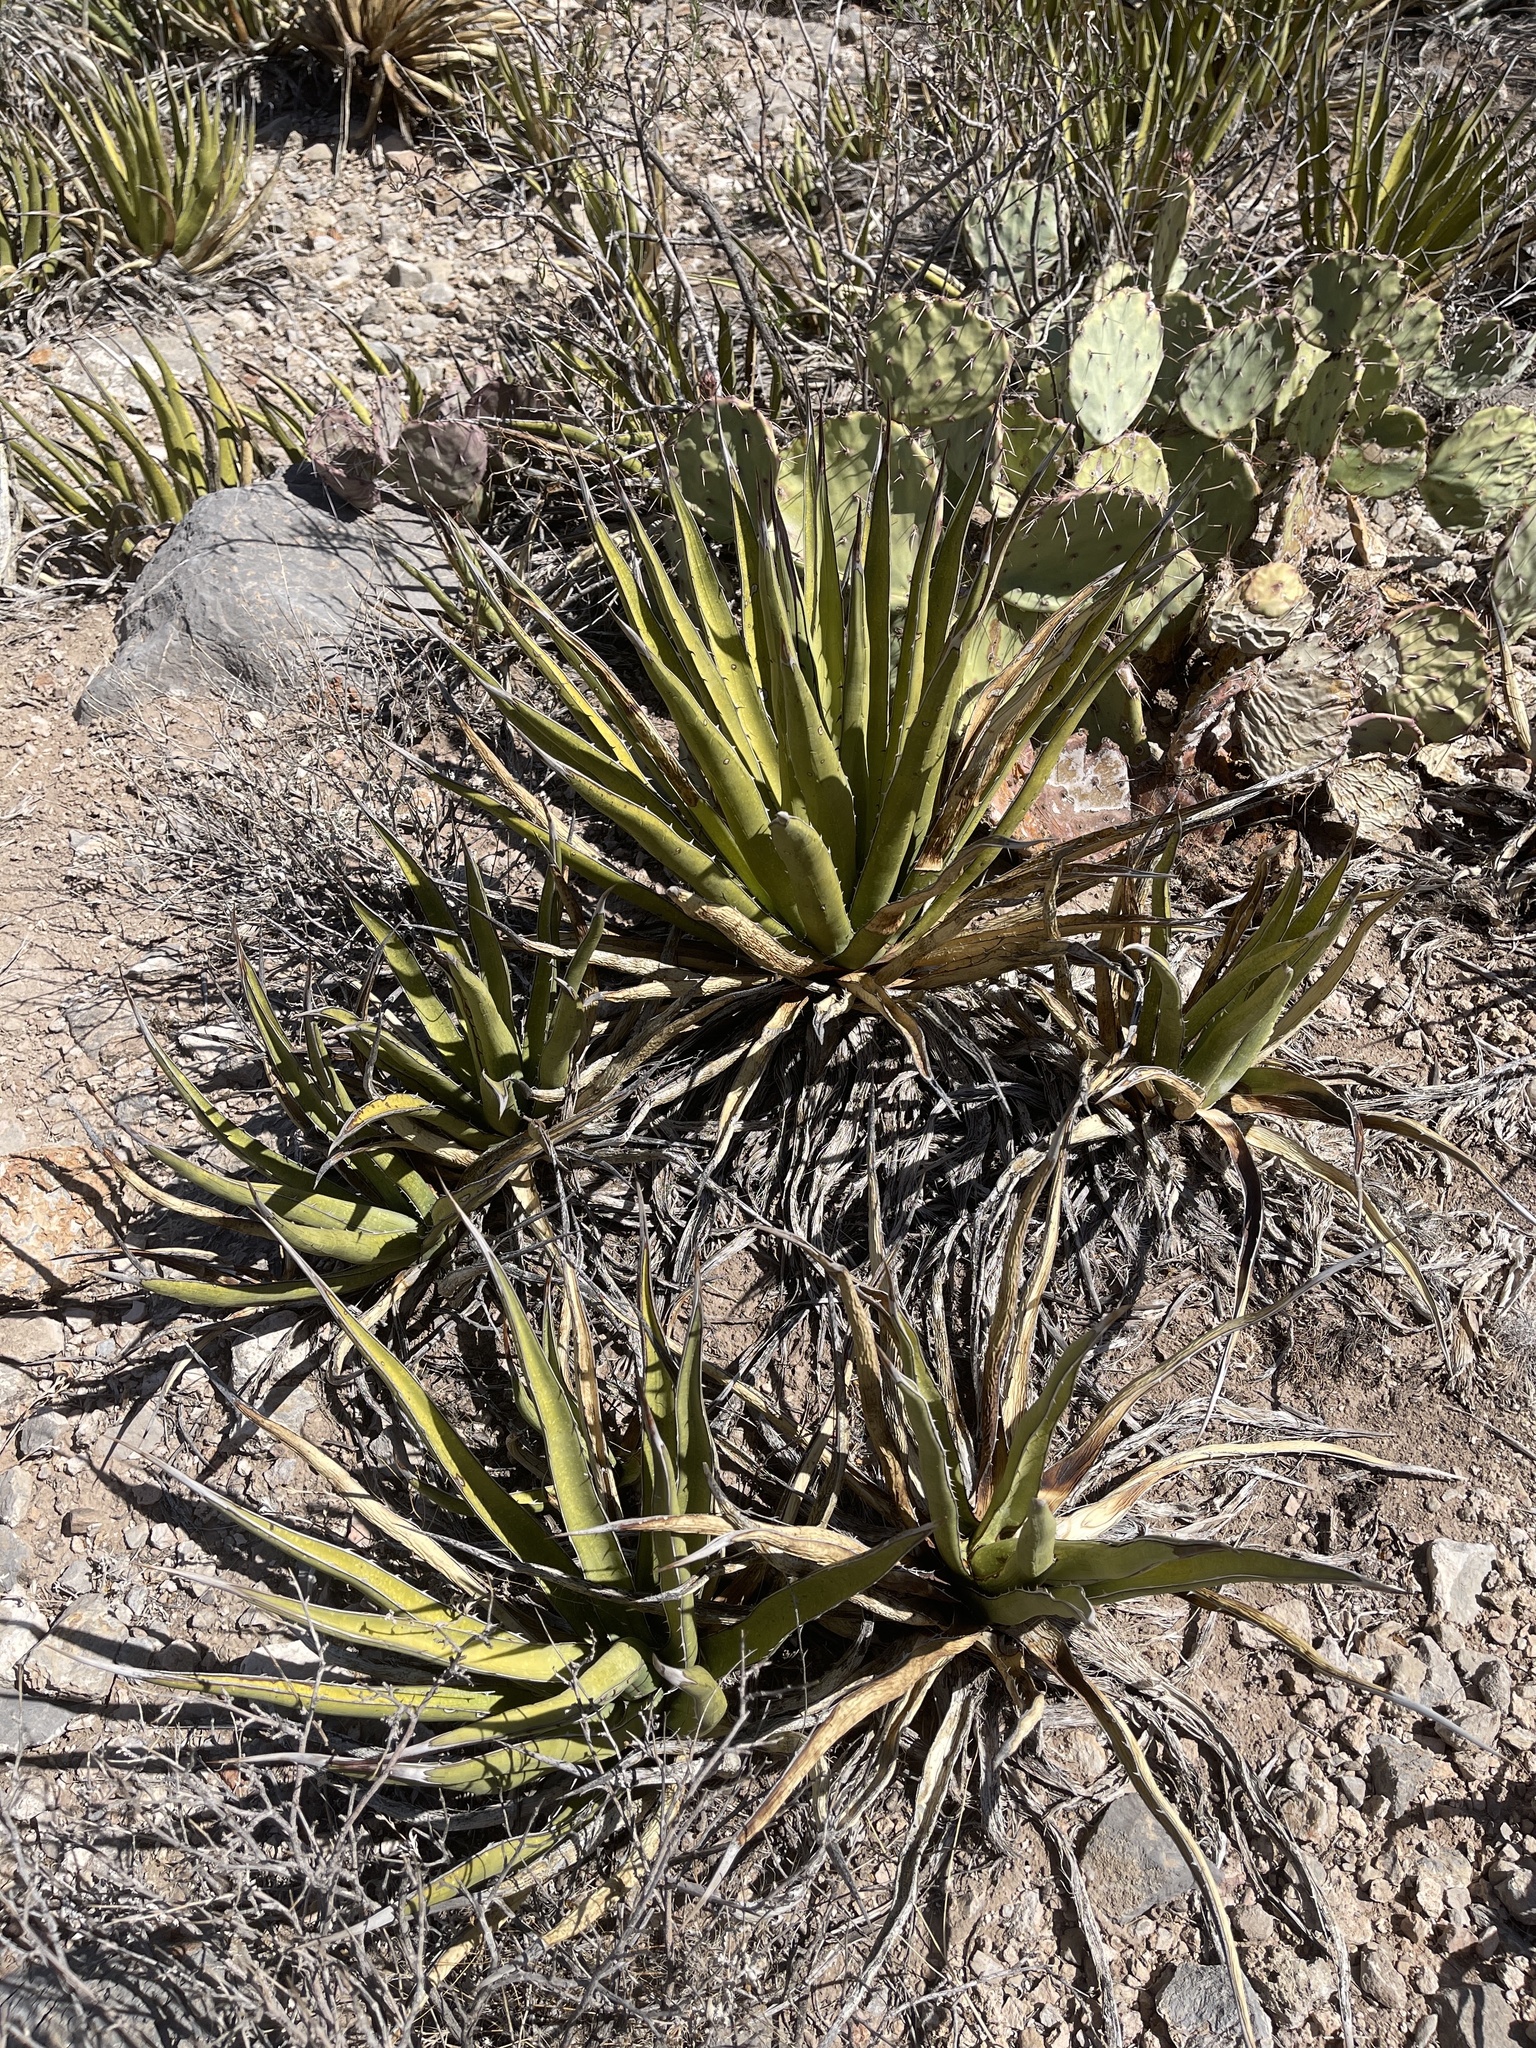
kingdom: Plantae
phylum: Tracheophyta
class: Liliopsida
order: Asparagales
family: Asparagaceae
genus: Agave
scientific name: Agave lechuguilla
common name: Lecheguilla agave
